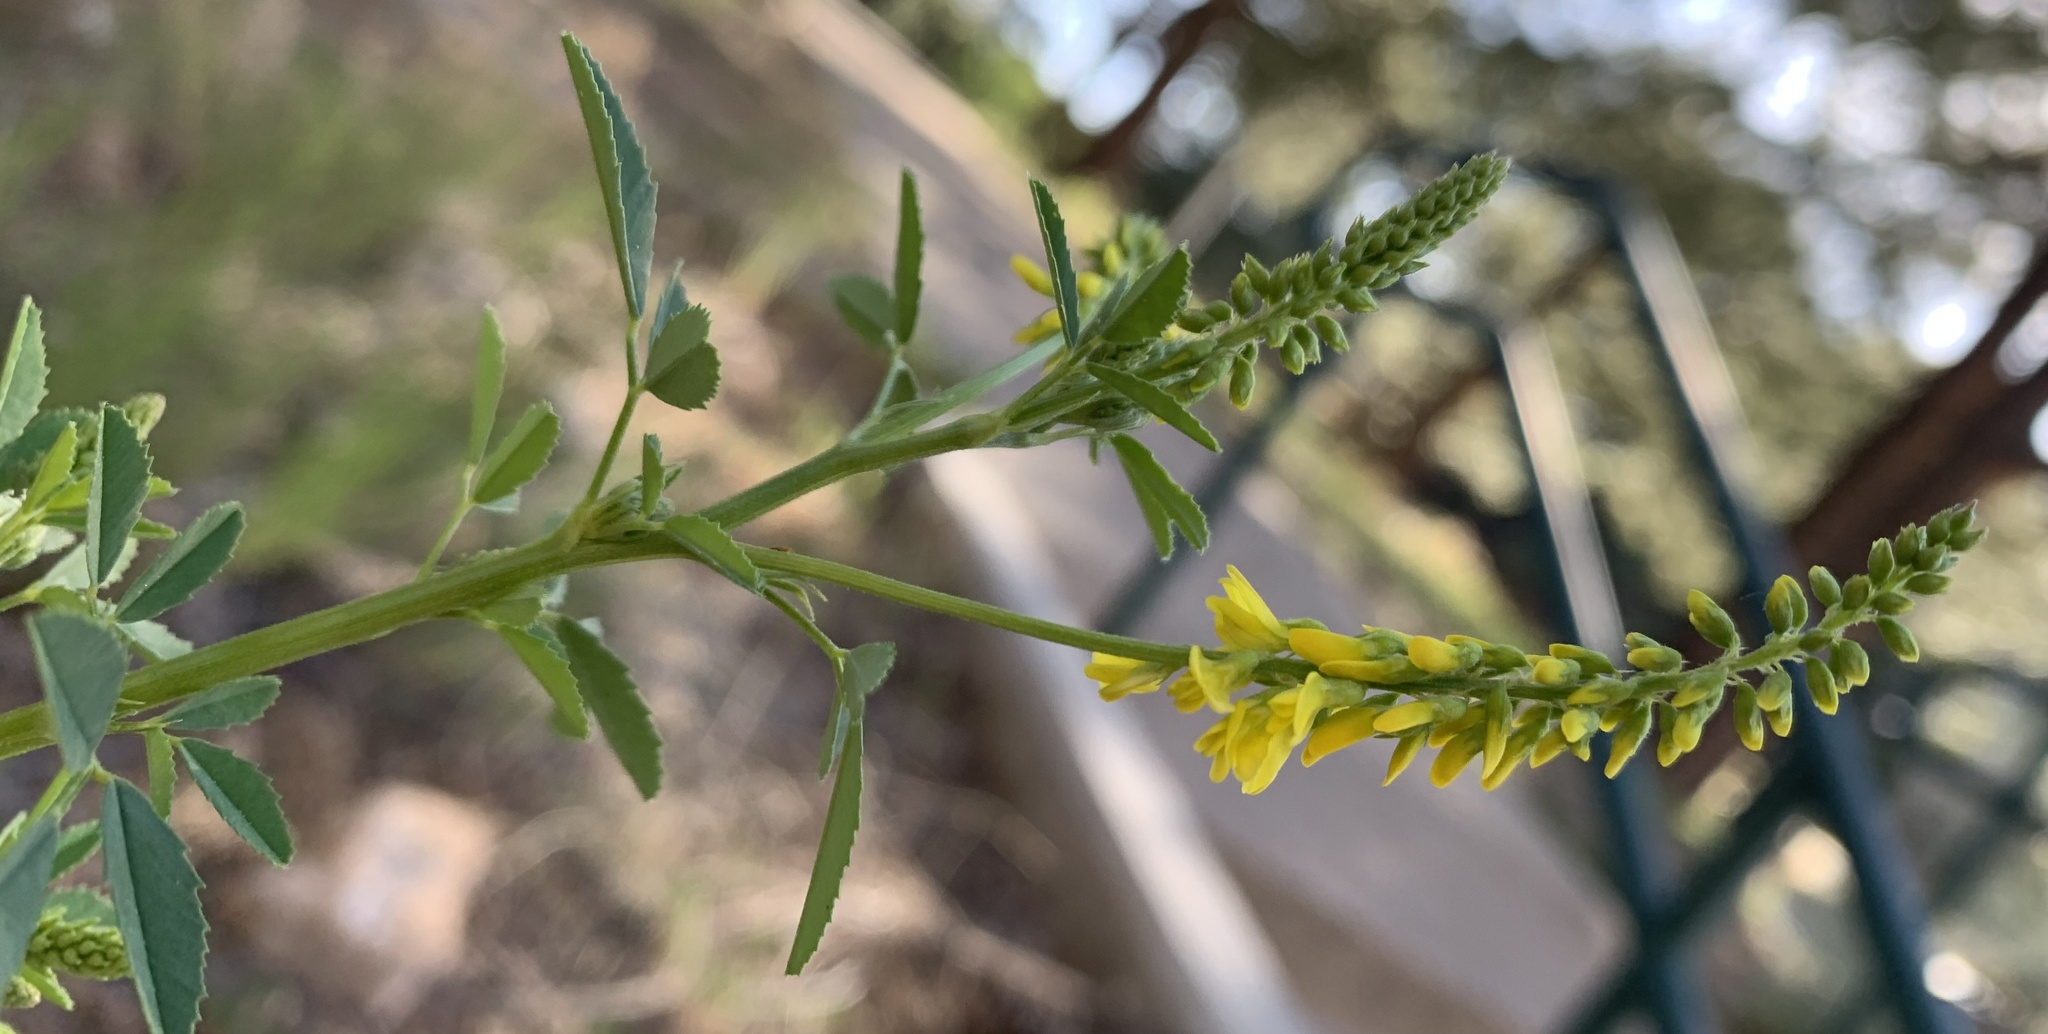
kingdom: Plantae
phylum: Tracheophyta
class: Magnoliopsida
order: Fabales
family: Fabaceae
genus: Melilotus
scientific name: Melilotus officinalis
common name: Sweetclover
